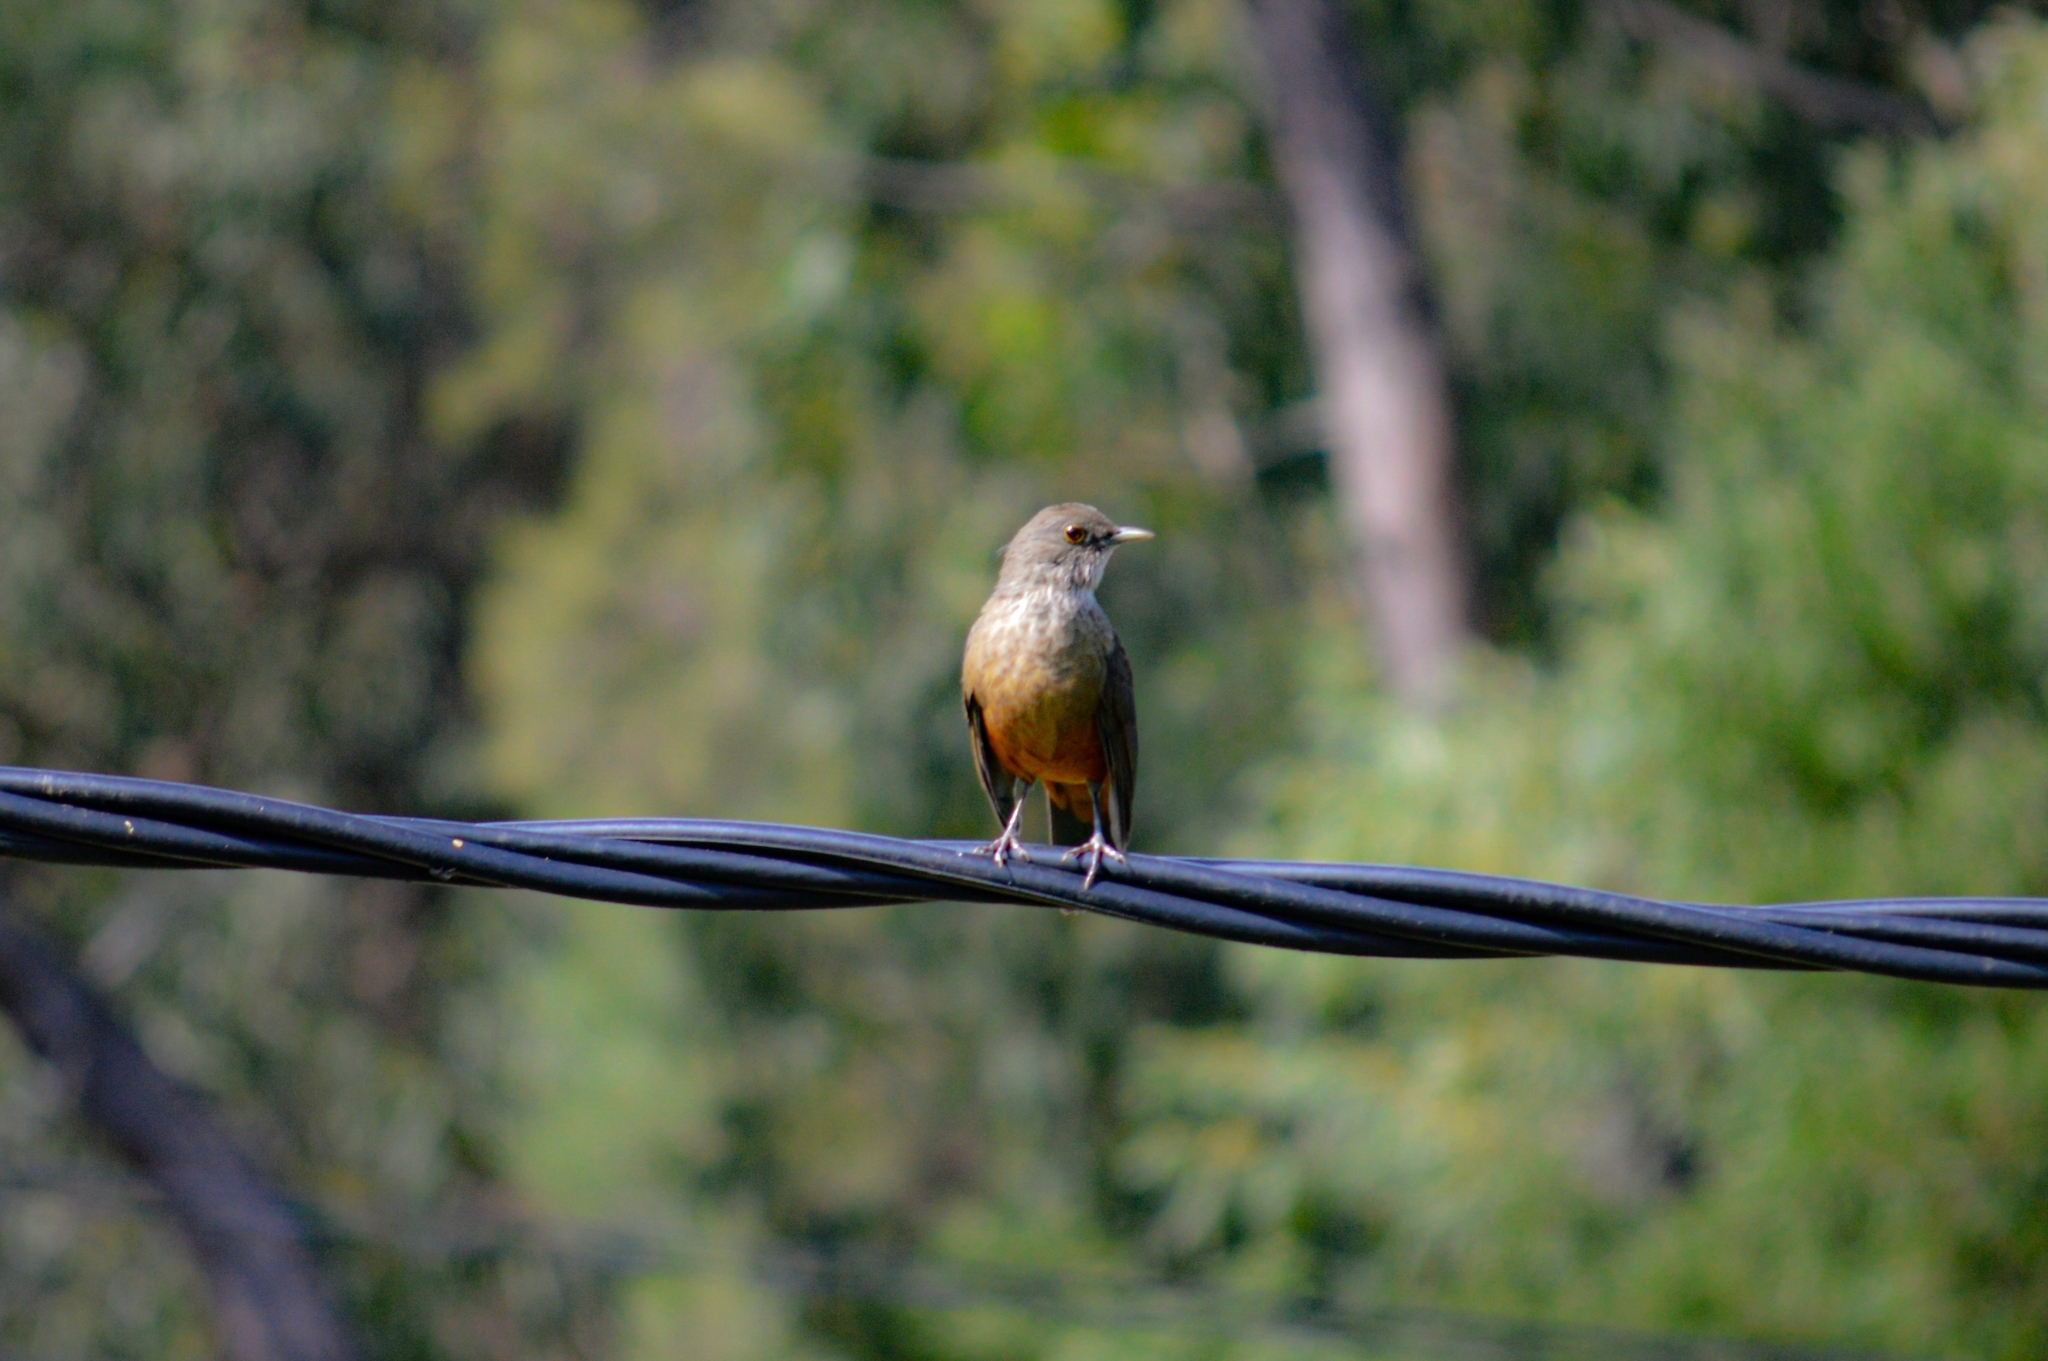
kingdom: Animalia
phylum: Chordata
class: Aves
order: Passeriformes
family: Turdidae
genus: Turdus
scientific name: Turdus rufiventris
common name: Rufous-bellied thrush
